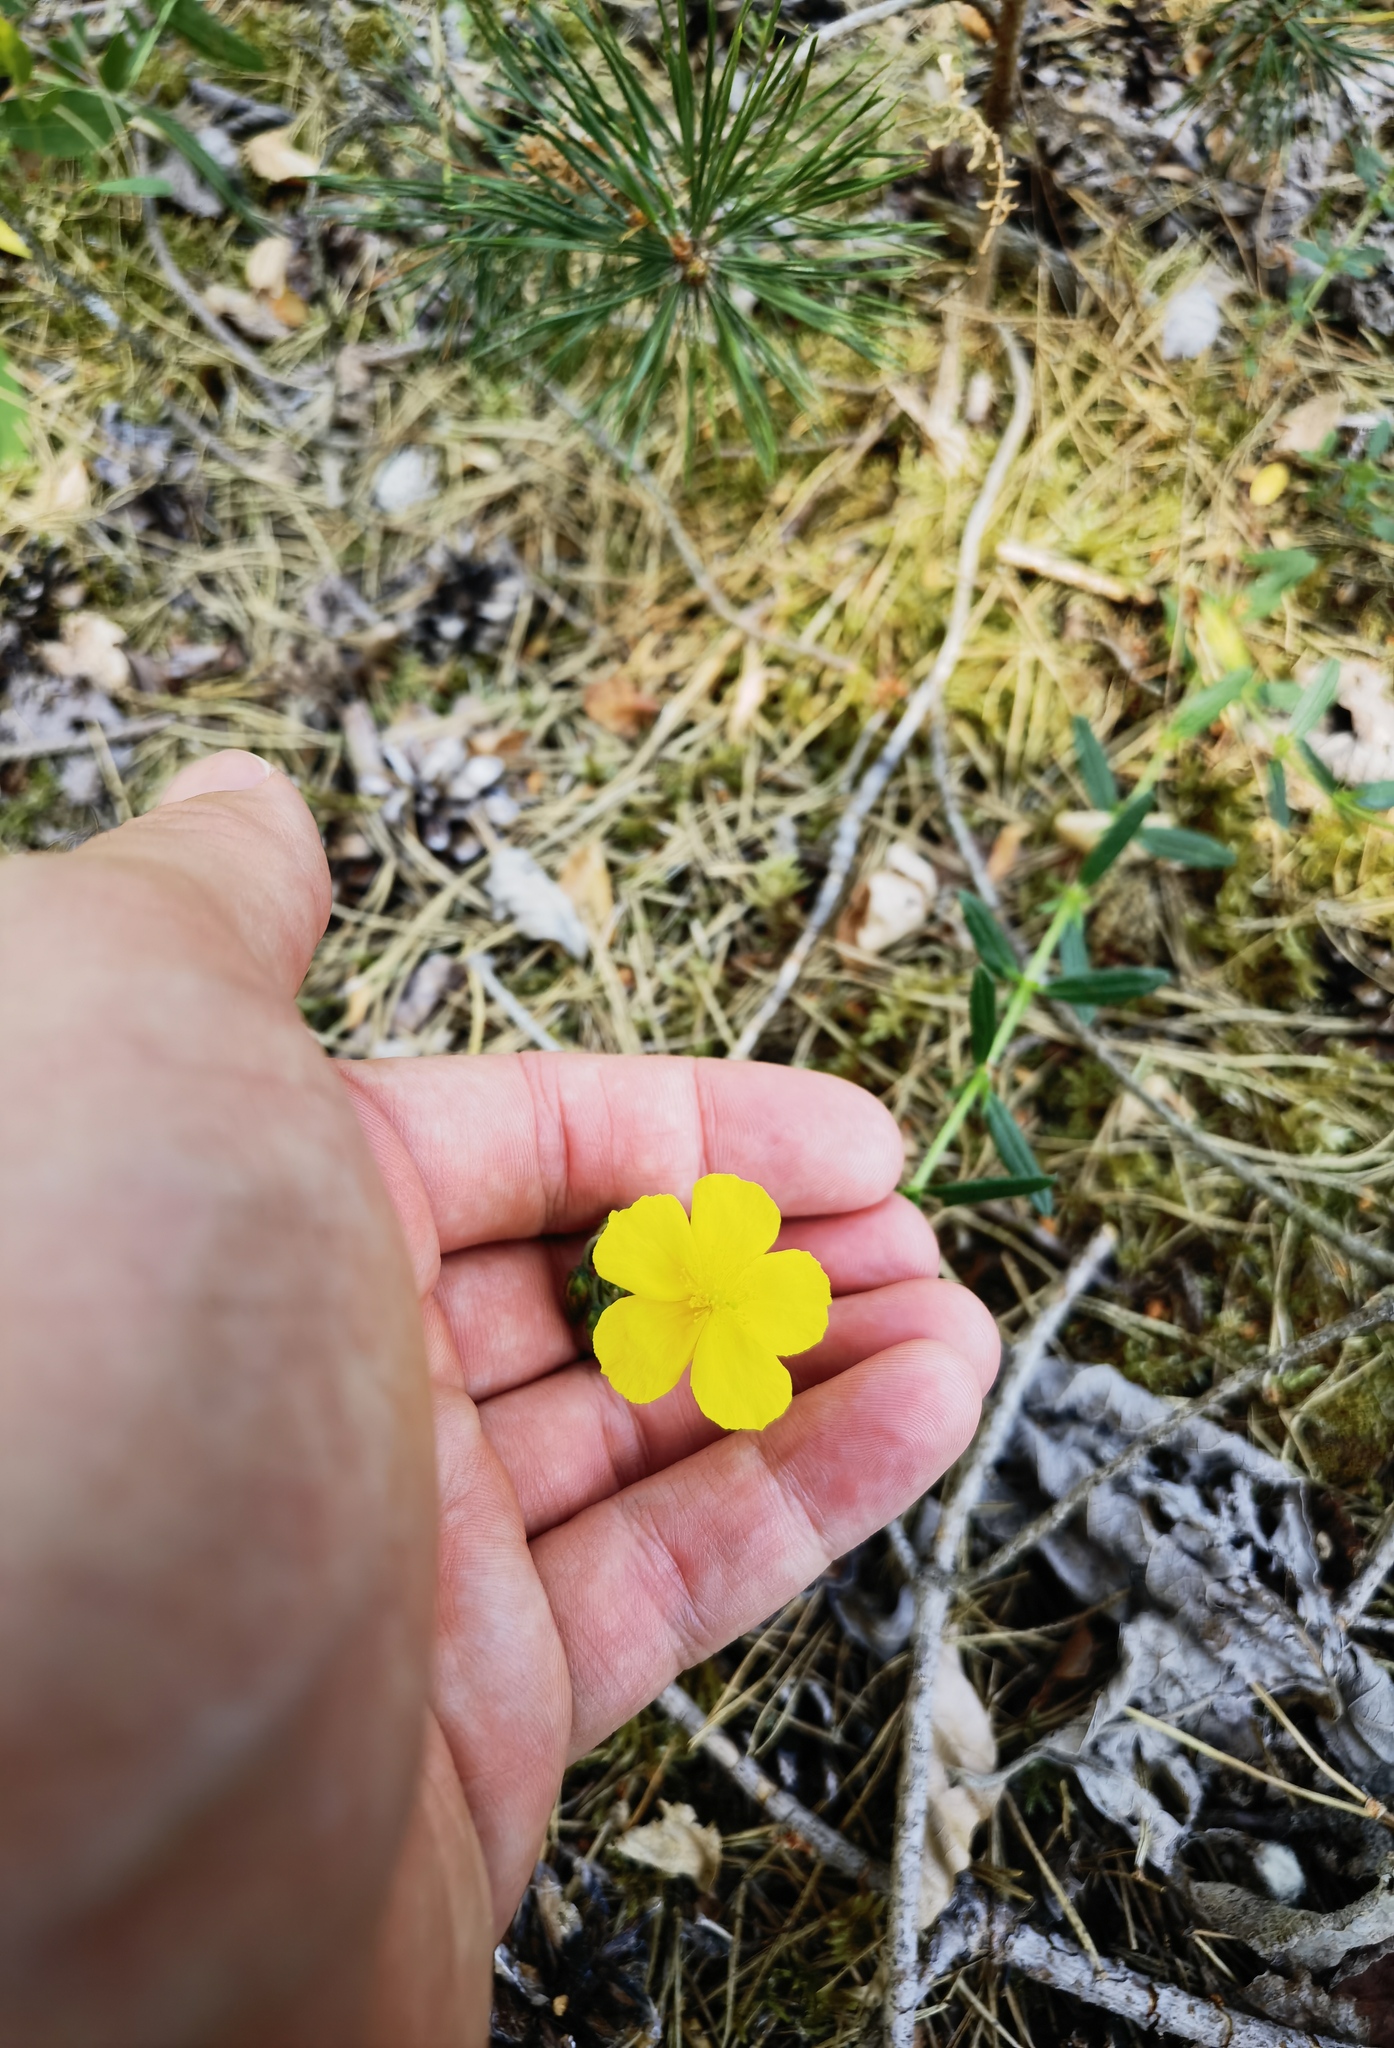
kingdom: Plantae
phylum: Tracheophyta
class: Magnoliopsida
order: Malvales
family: Cistaceae
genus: Helianthemum
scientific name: Helianthemum nummularium
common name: Common rock-rose
